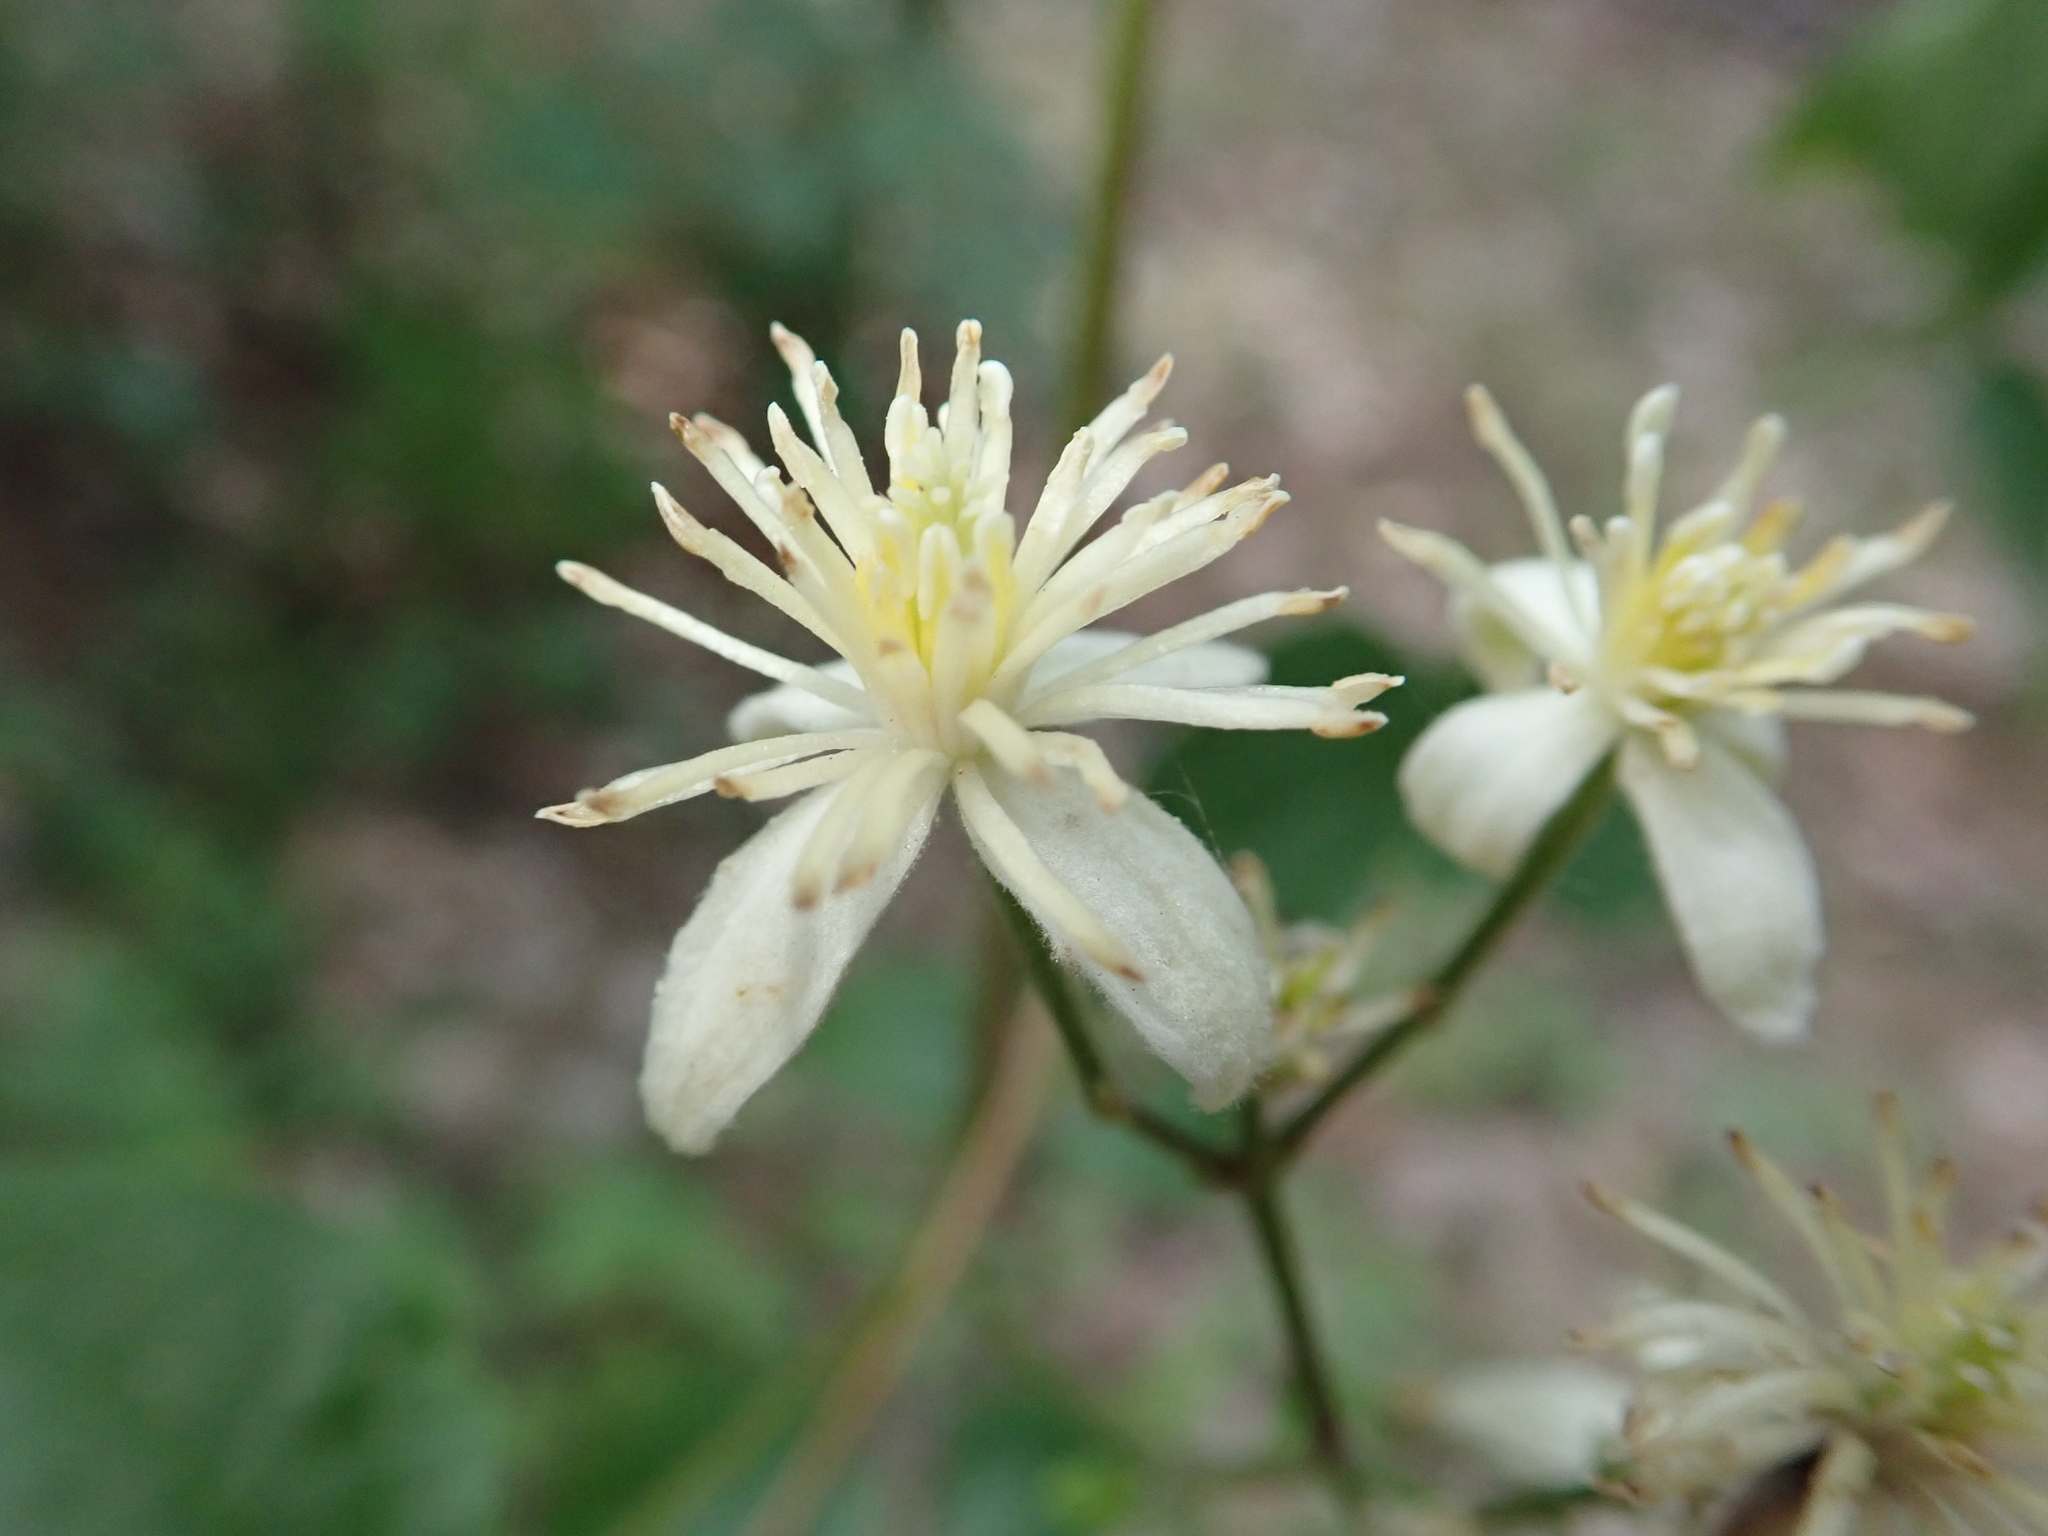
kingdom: Plantae
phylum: Tracheophyta
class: Magnoliopsida
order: Ranunculales
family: Ranunculaceae
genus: Clematis
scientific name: Clematis vitalba
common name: Evergreen clematis
